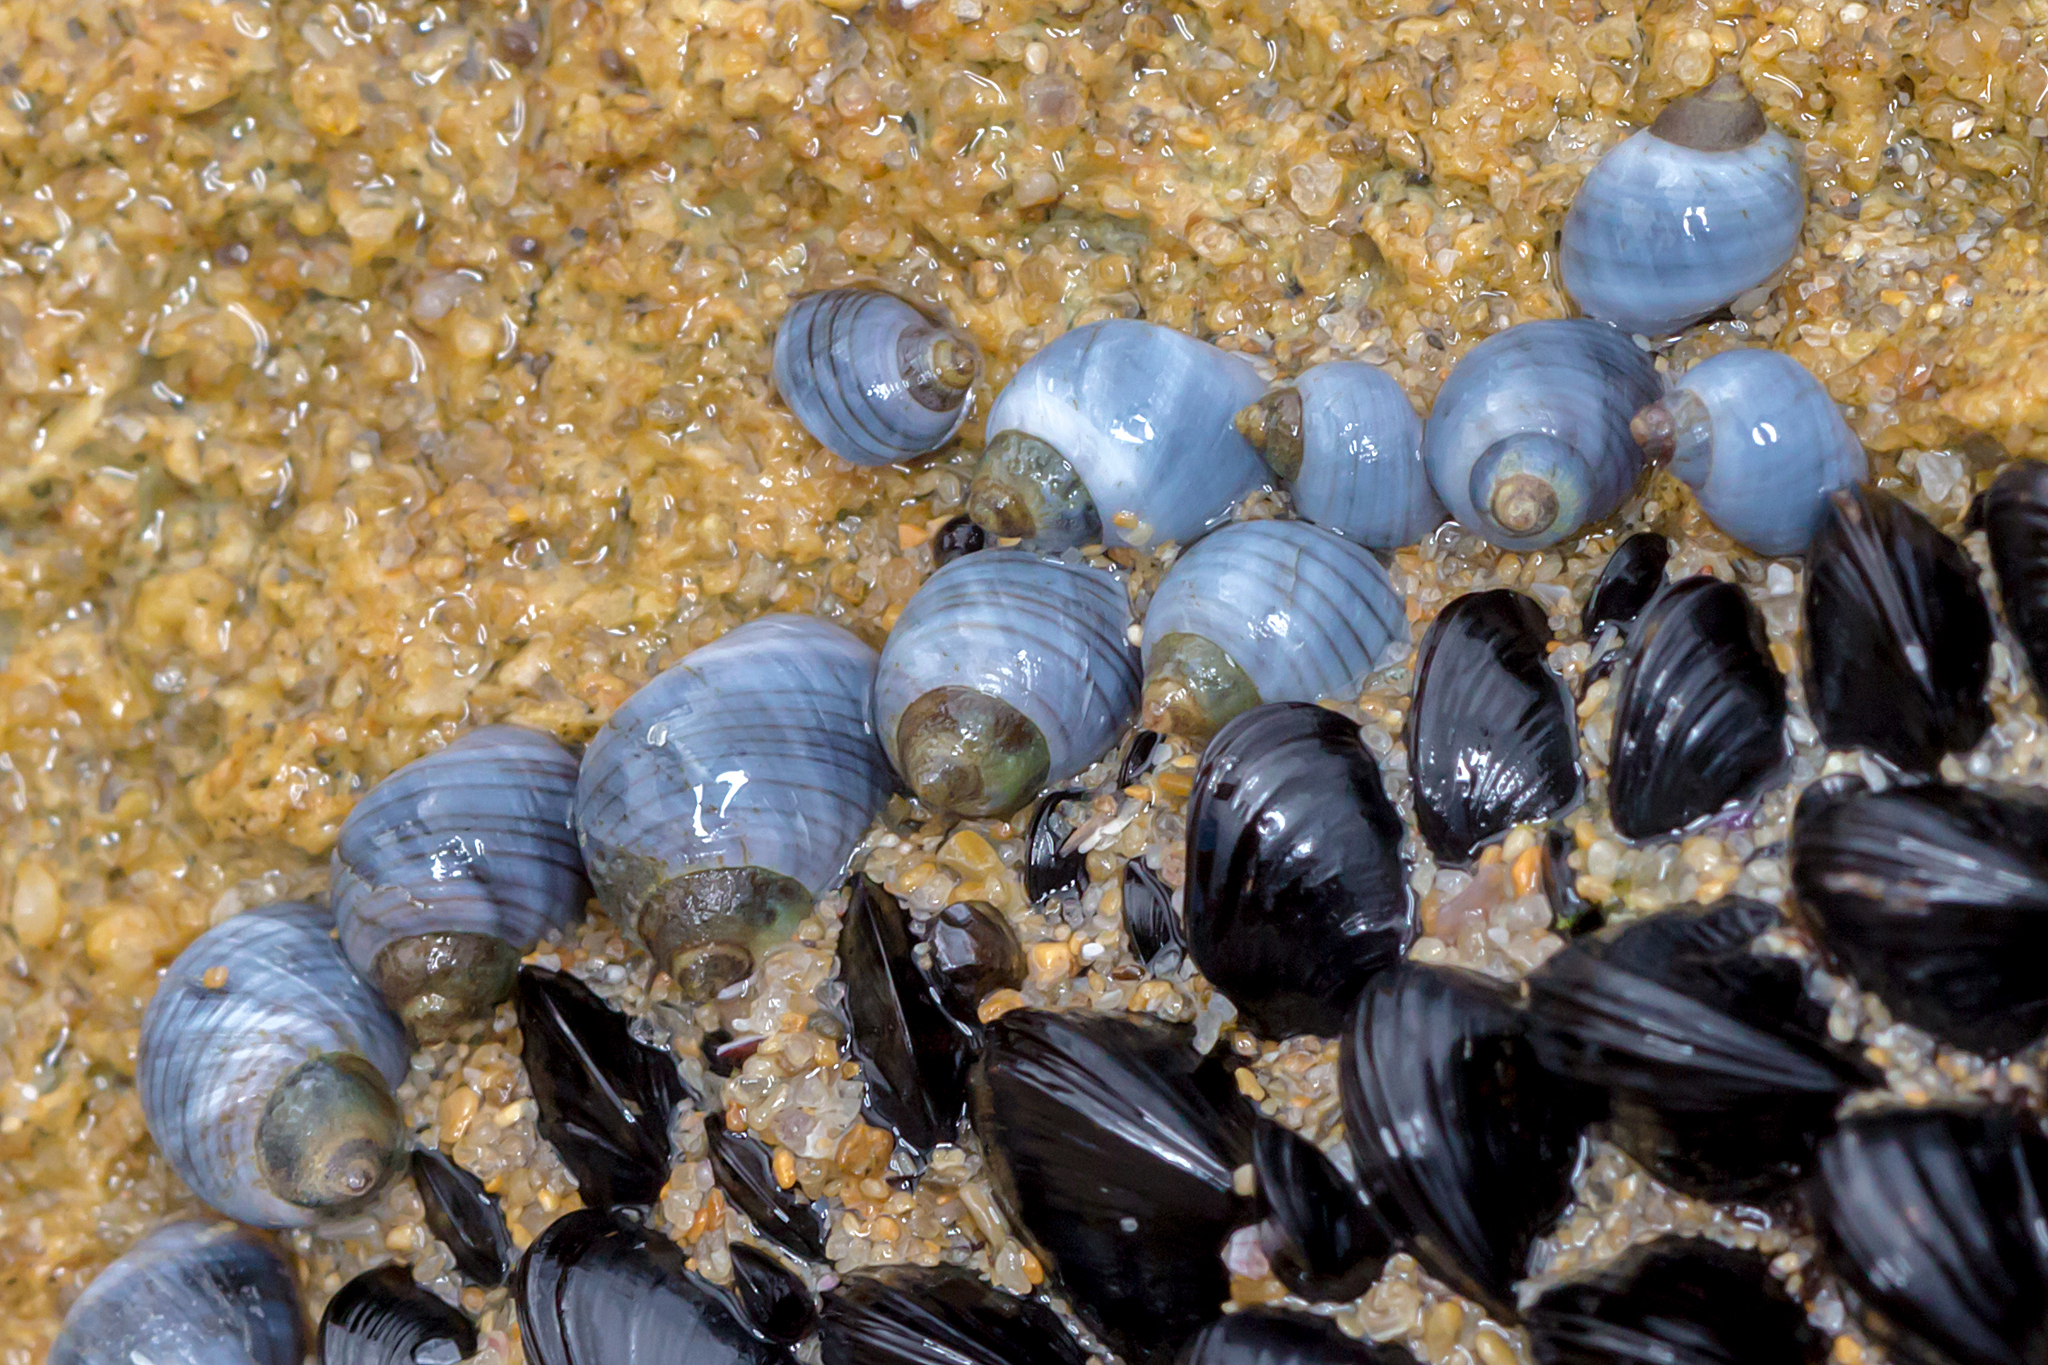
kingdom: Animalia
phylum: Mollusca
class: Gastropoda
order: Littorinimorpha
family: Littorinidae
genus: Austrolittorina
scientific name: Austrolittorina unifasciata
